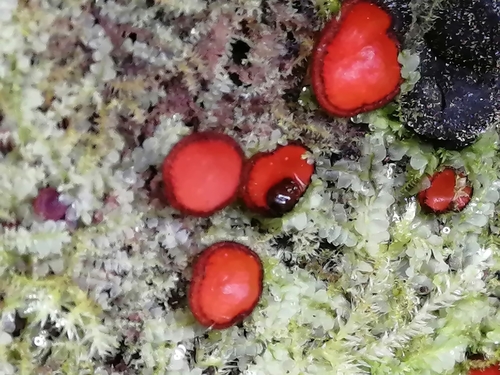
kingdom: Fungi
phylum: Ascomycota
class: Pezizomycetes
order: Pezizales
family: Pyronemataceae
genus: Scutellinia
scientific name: Scutellinia
